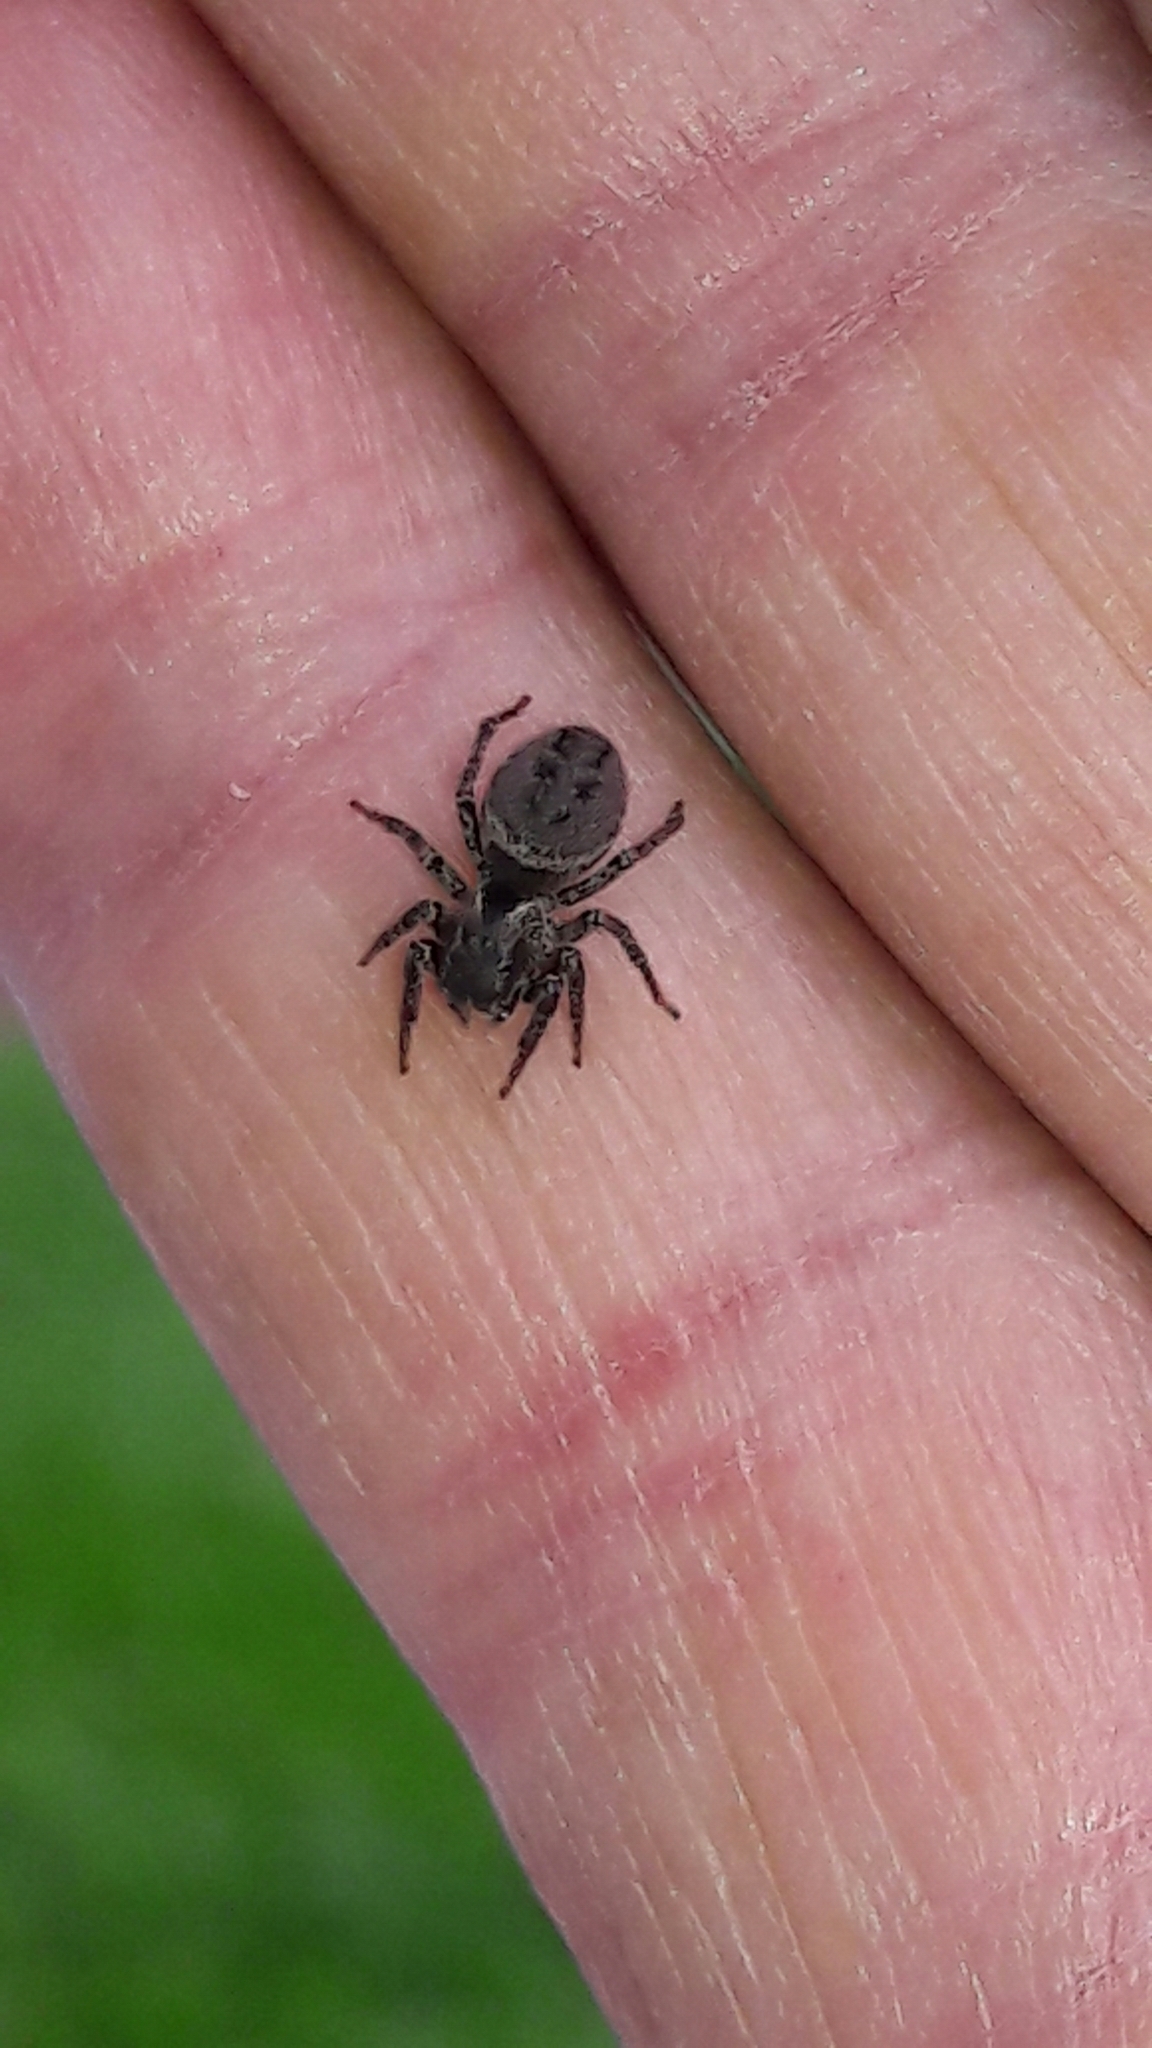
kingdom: Animalia
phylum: Arthropoda
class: Arachnida
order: Araneae
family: Salticidae
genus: Tullgrenella
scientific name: Tullgrenella yungae
